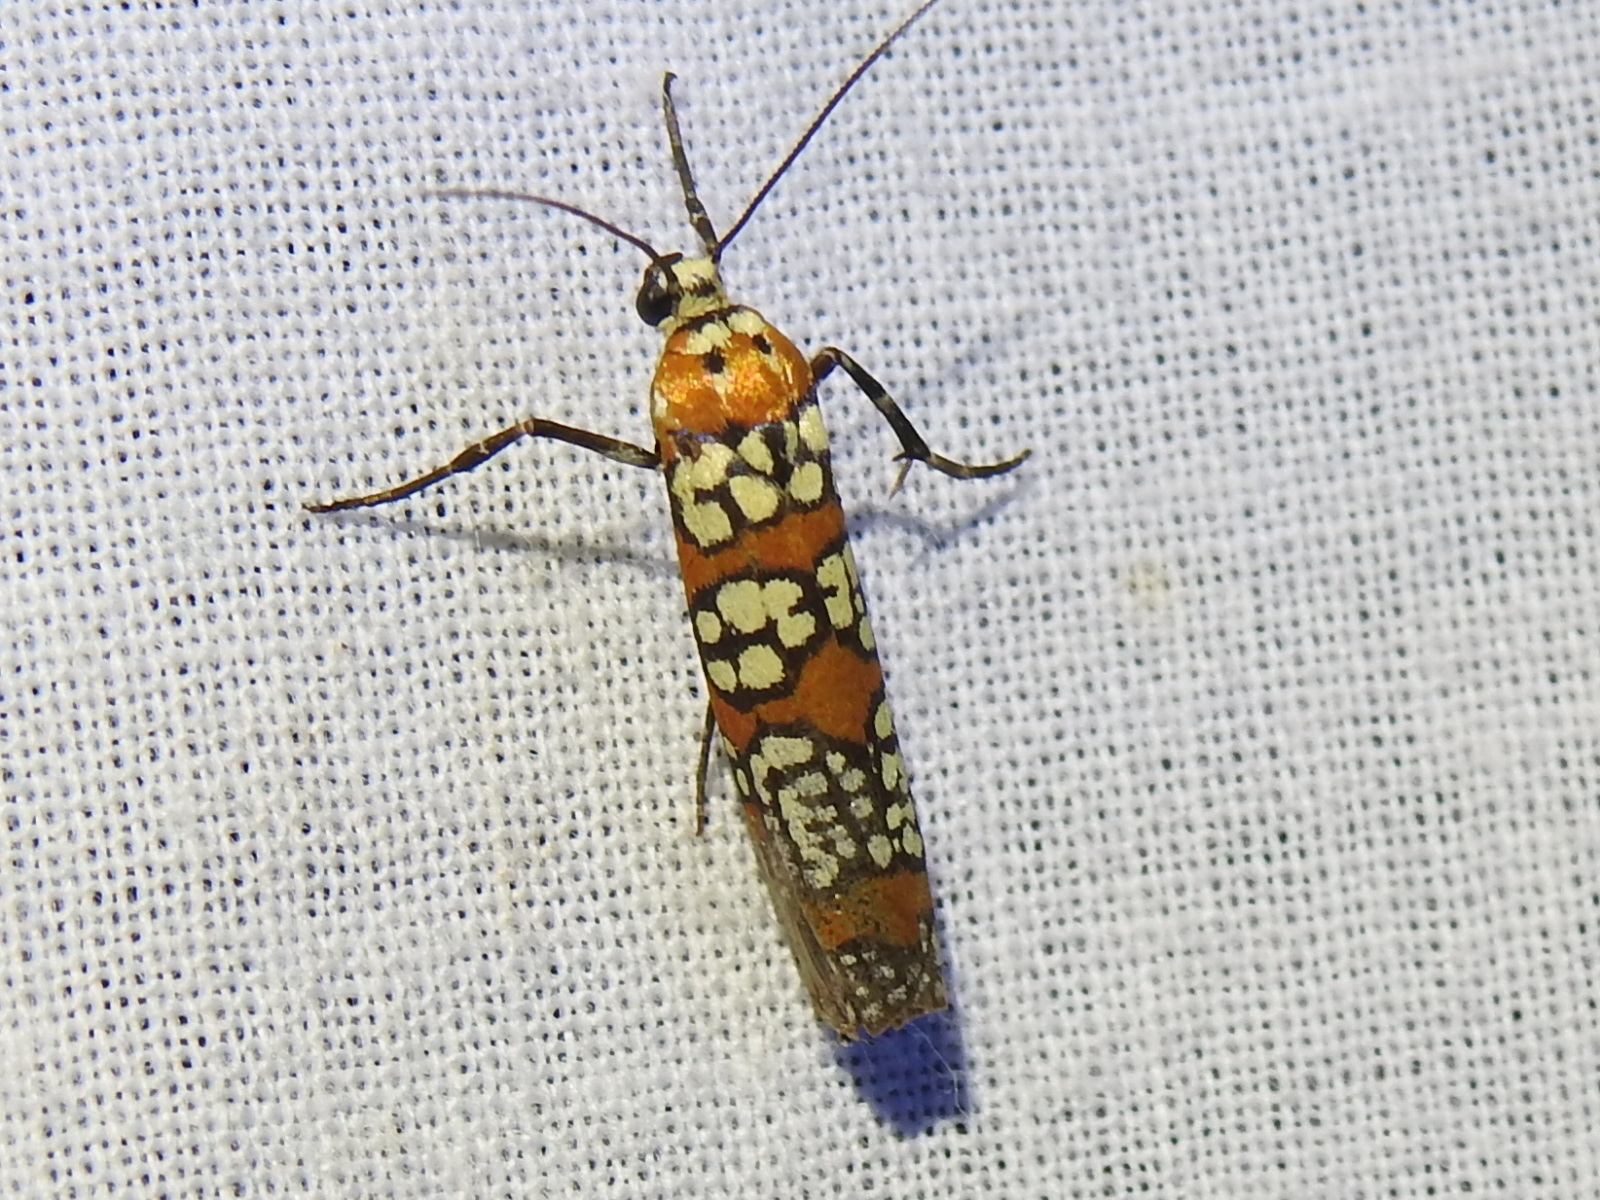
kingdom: Animalia
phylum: Arthropoda
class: Insecta
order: Lepidoptera
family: Attevidae
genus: Atteva
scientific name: Atteva punctella
